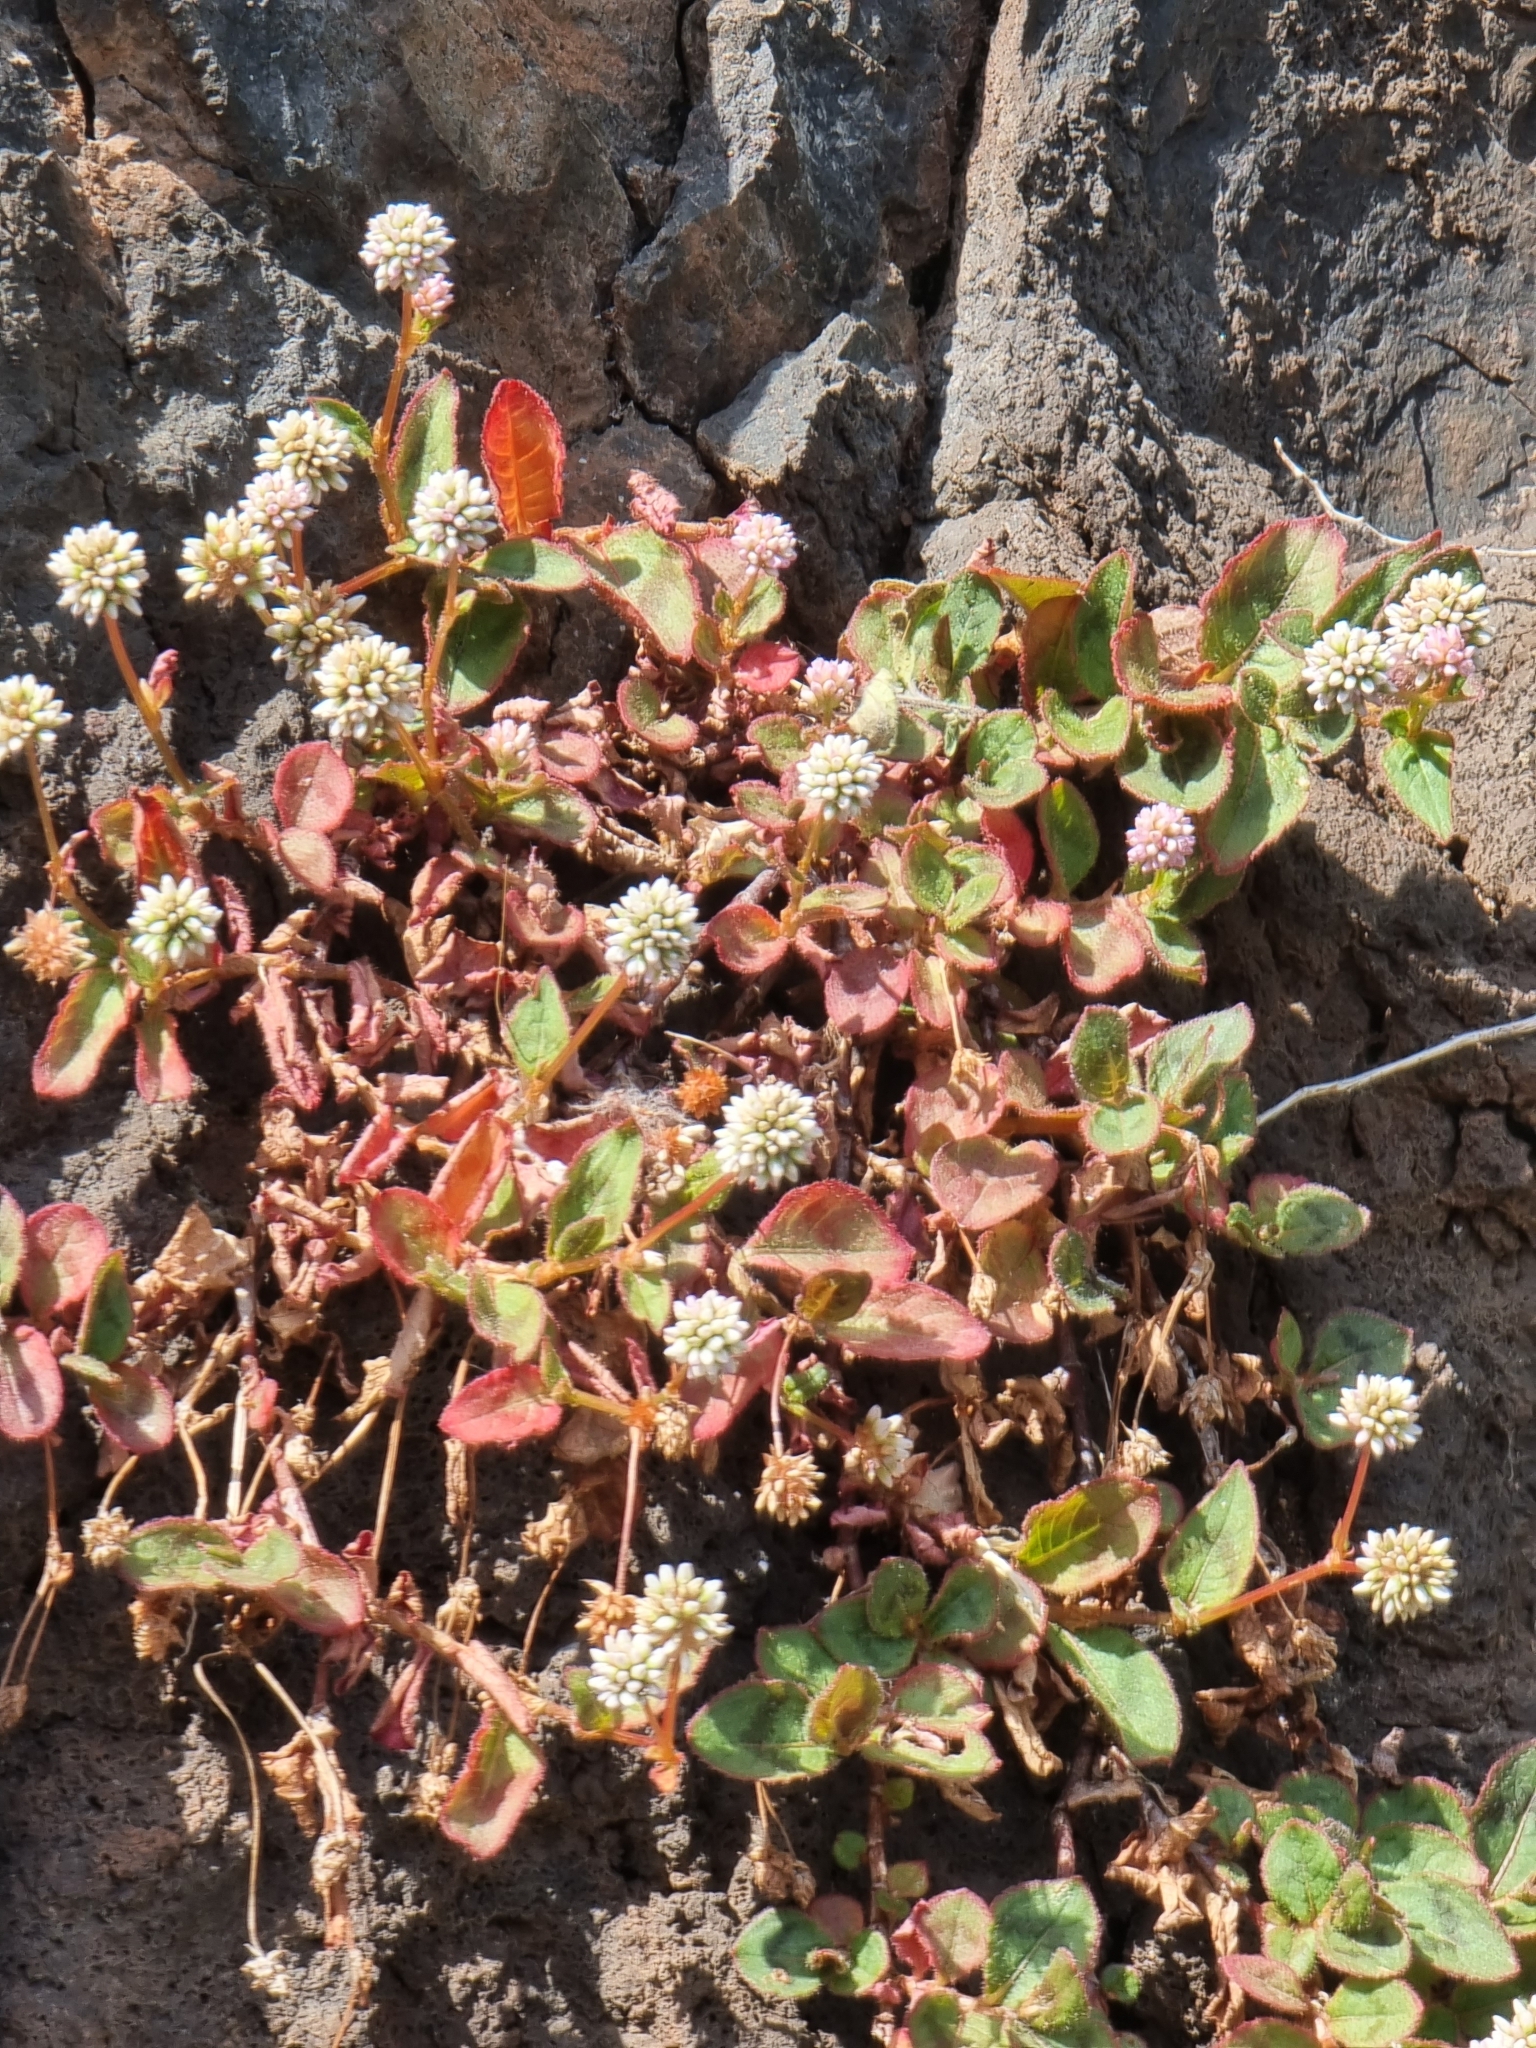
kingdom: Plantae
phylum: Tracheophyta
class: Magnoliopsida
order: Caryophyllales
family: Polygonaceae
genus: Persicaria
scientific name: Persicaria capitata
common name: Pinkhead smartweed
